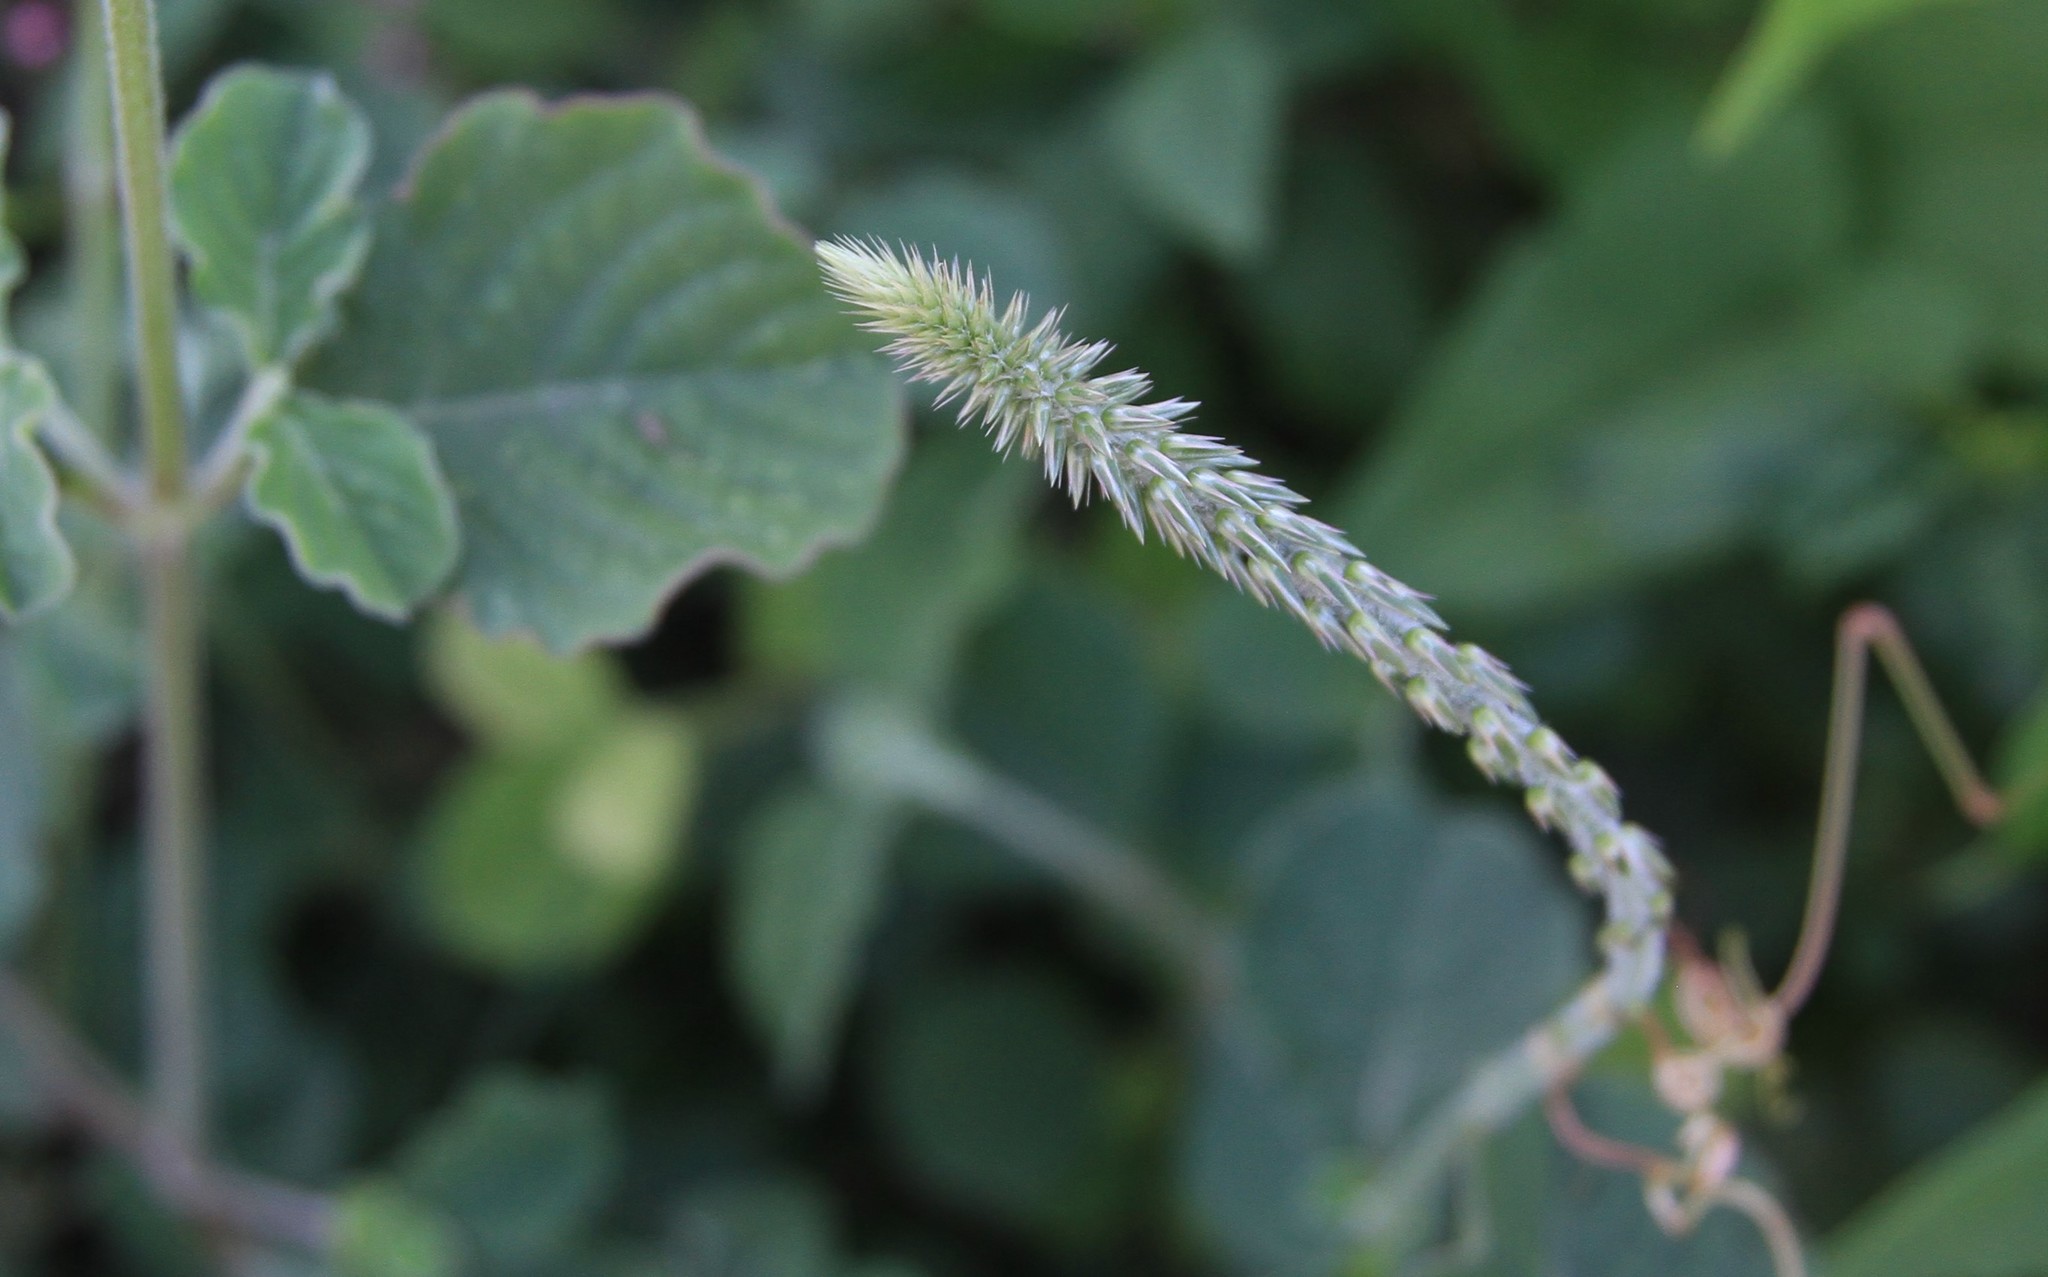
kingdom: Plantae
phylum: Tracheophyta
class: Magnoliopsida
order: Caryophyllales
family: Amaranthaceae
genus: Achyranthes
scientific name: Achyranthes aspera
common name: Devil's horsewhip
